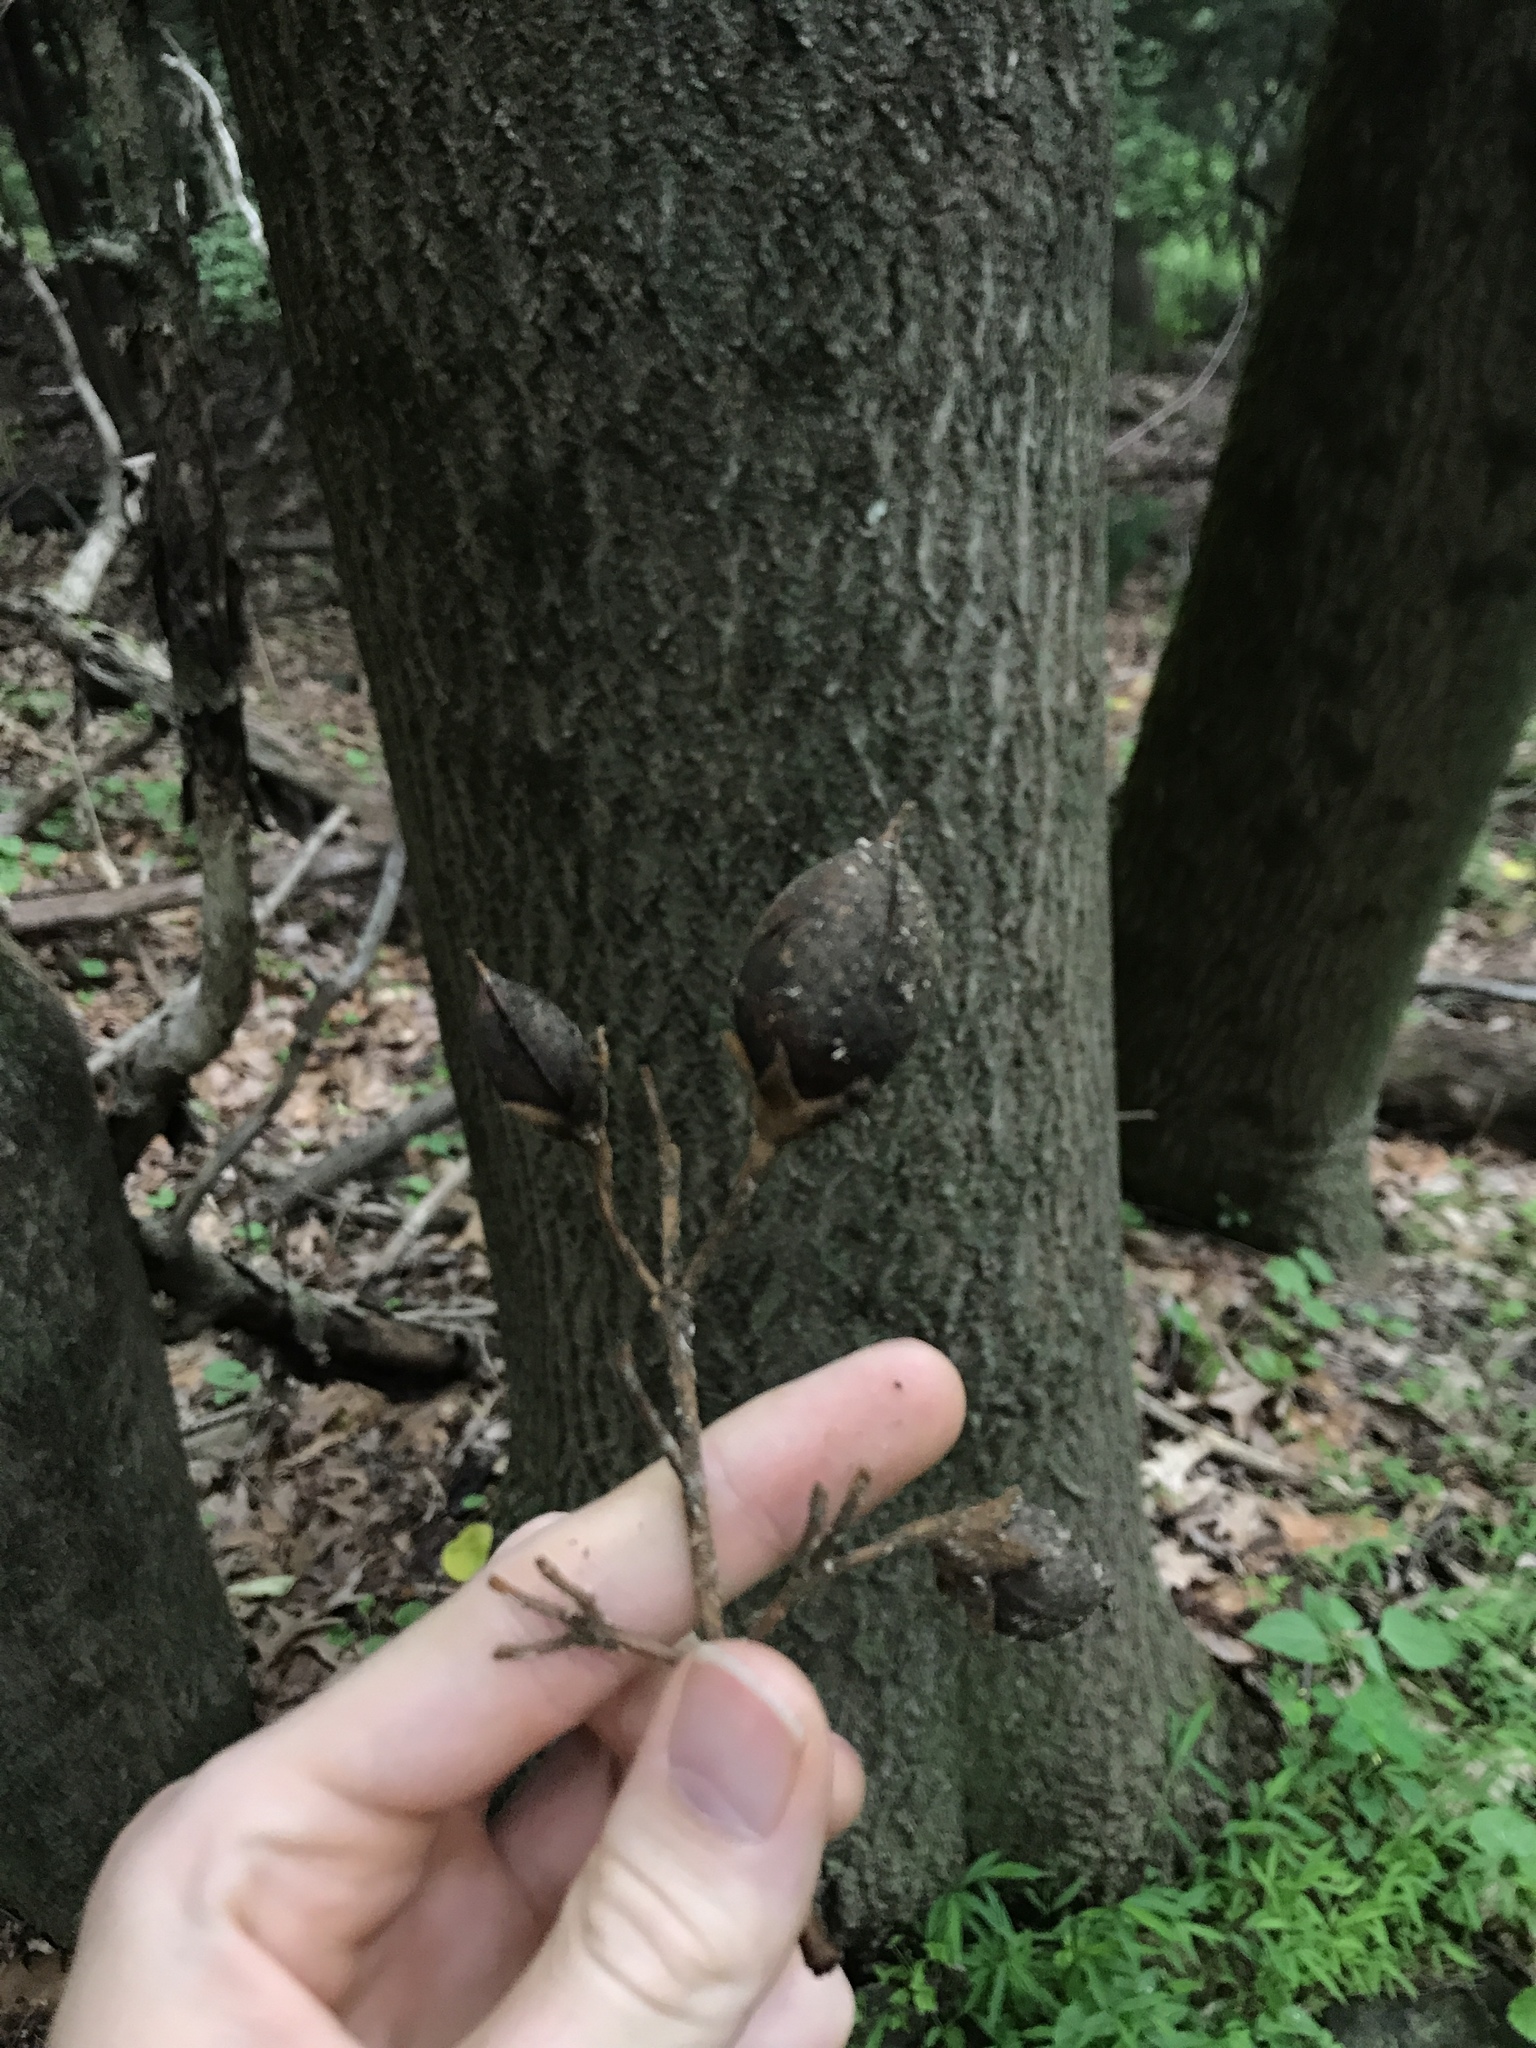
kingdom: Plantae
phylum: Tracheophyta
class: Magnoliopsida
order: Lamiales
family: Paulowniaceae
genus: Paulownia
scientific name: Paulownia tomentosa
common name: Foxglove-tree
